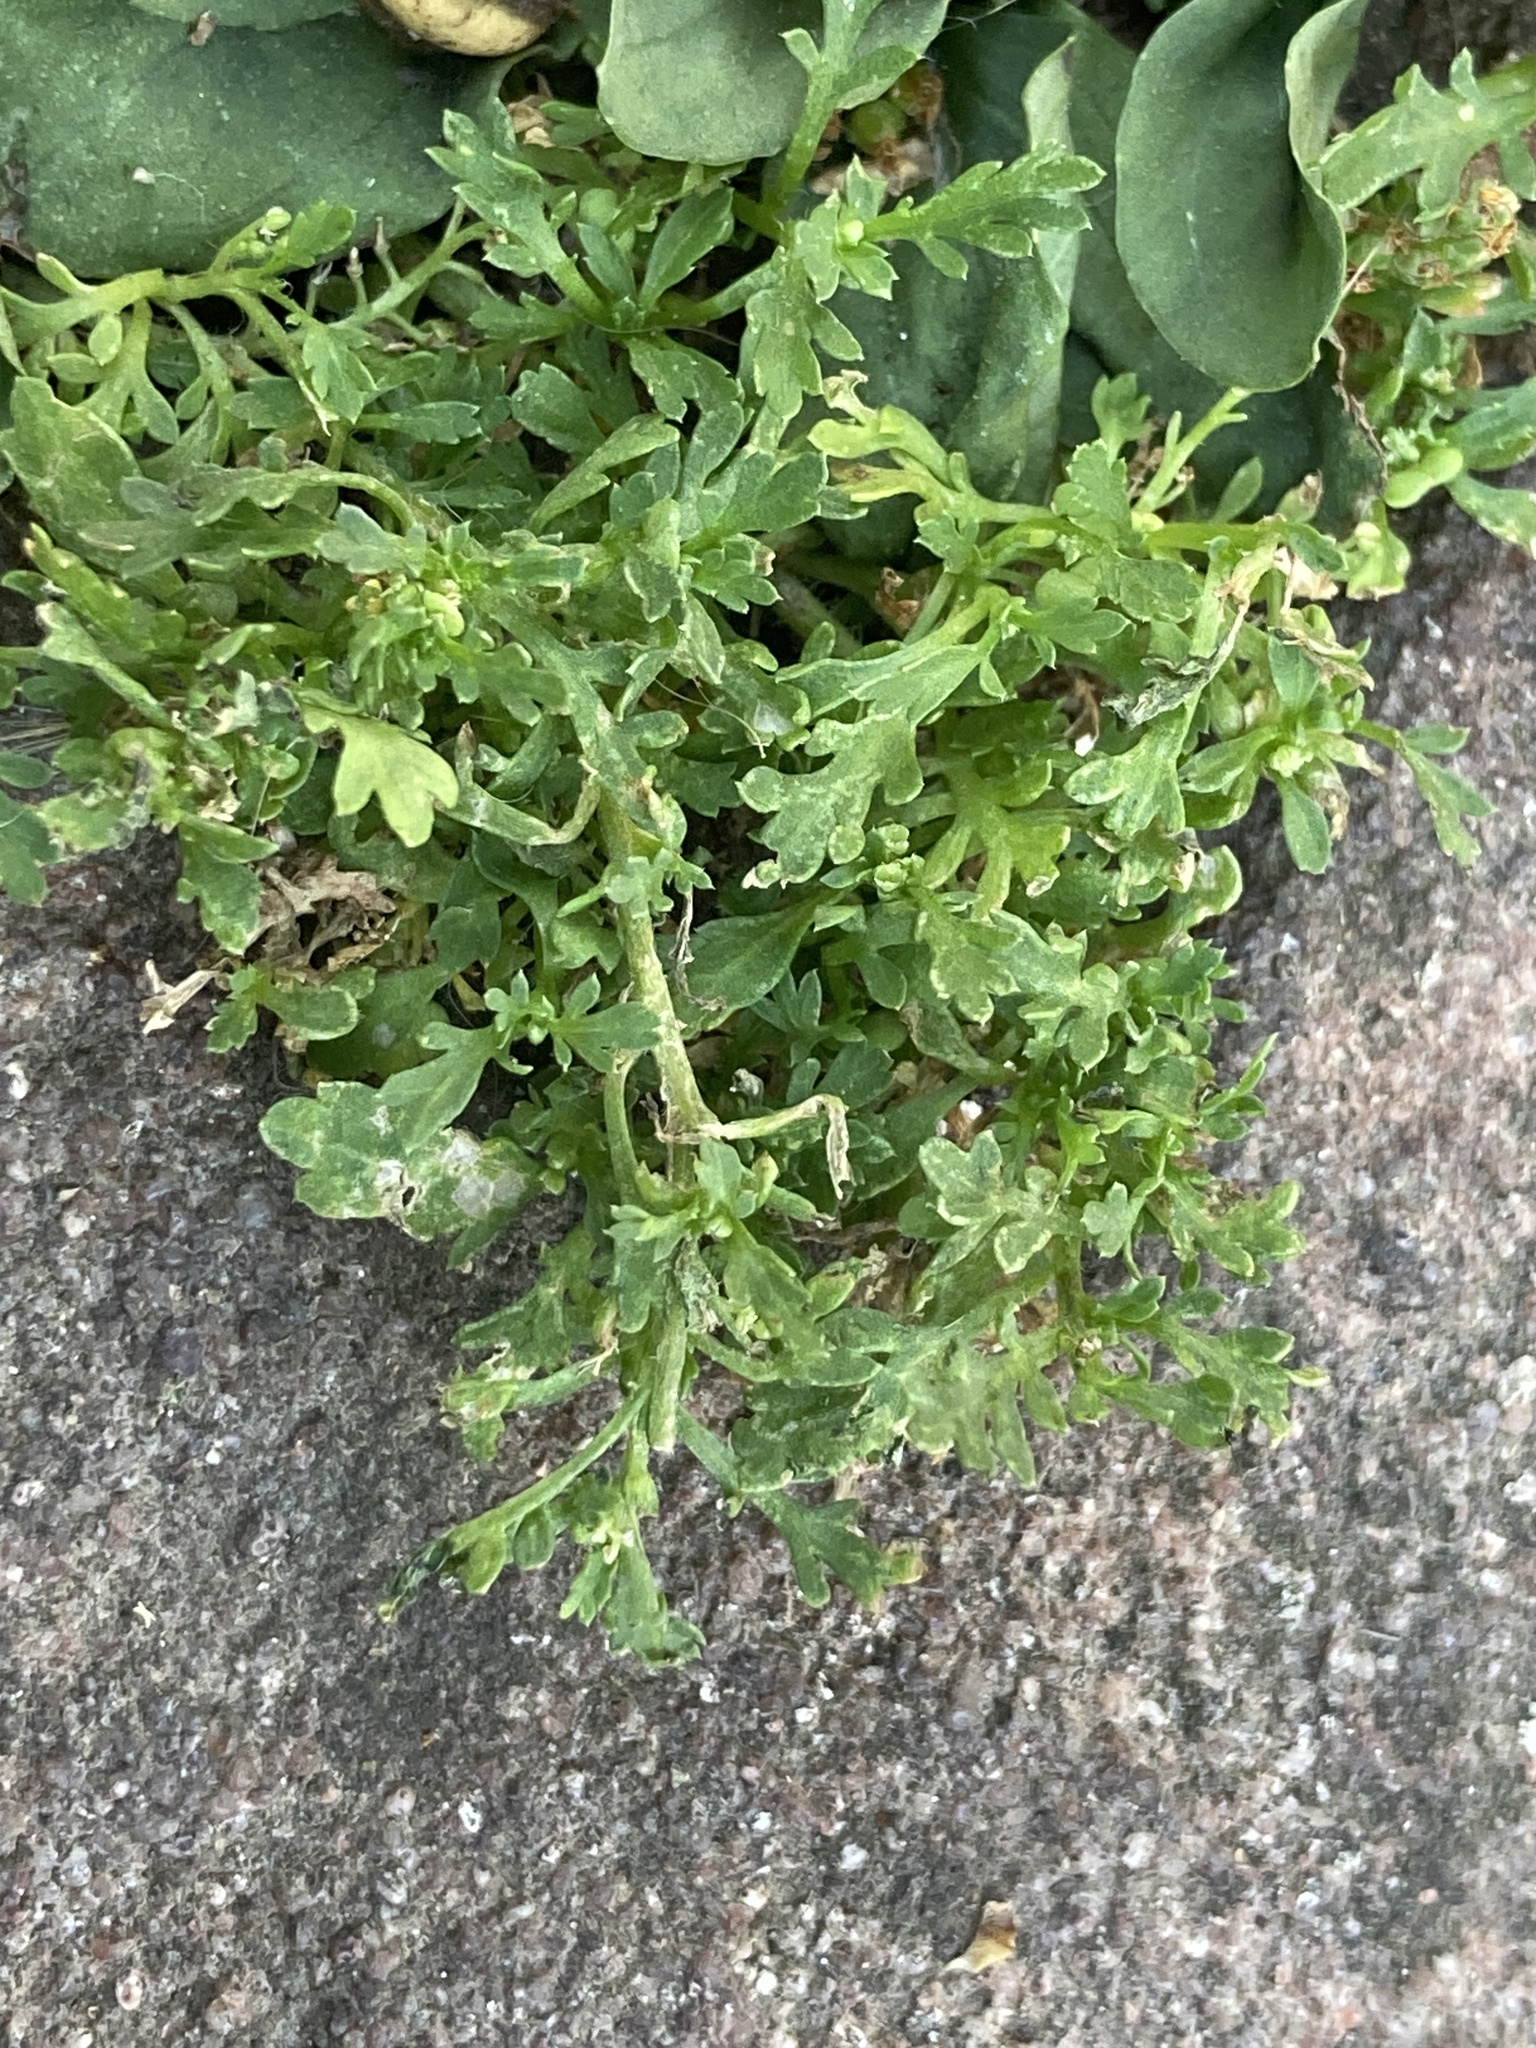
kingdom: Plantae
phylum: Tracheophyta
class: Magnoliopsida
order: Brassicales
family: Brassicaceae
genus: Lepidium
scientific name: Lepidium didymum
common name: Lesser swinecress
